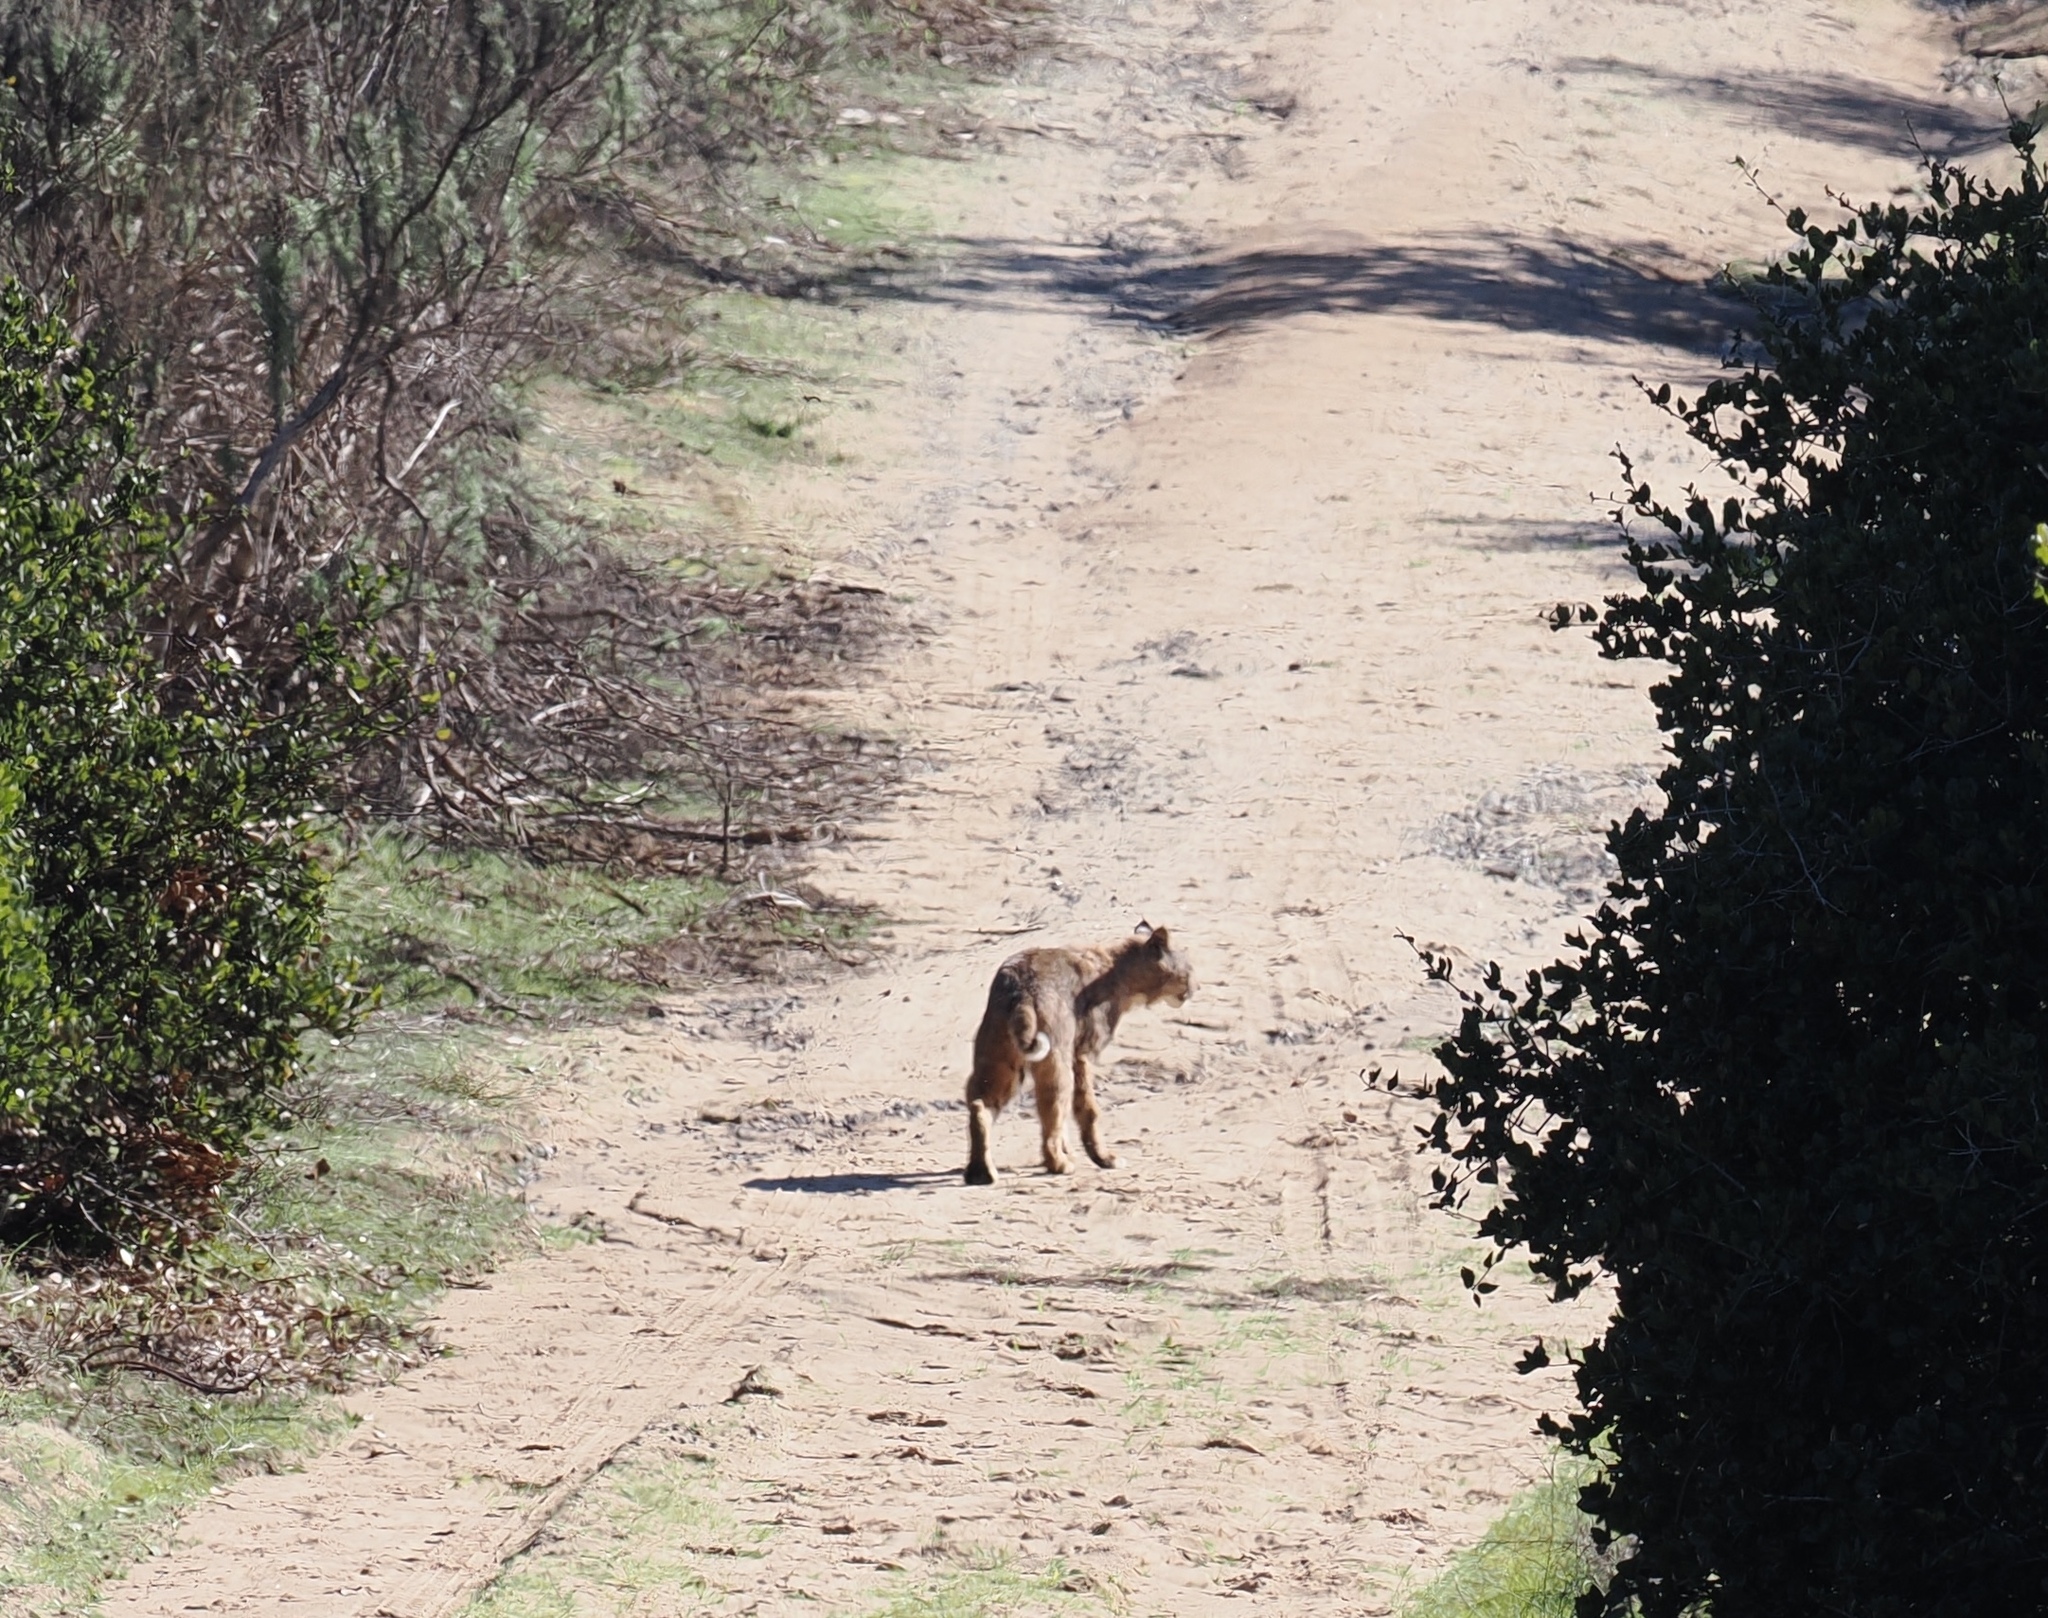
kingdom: Animalia
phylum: Chordata
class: Mammalia
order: Carnivora
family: Felidae
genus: Lynx
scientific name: Lynx rufus
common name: Bobcat
